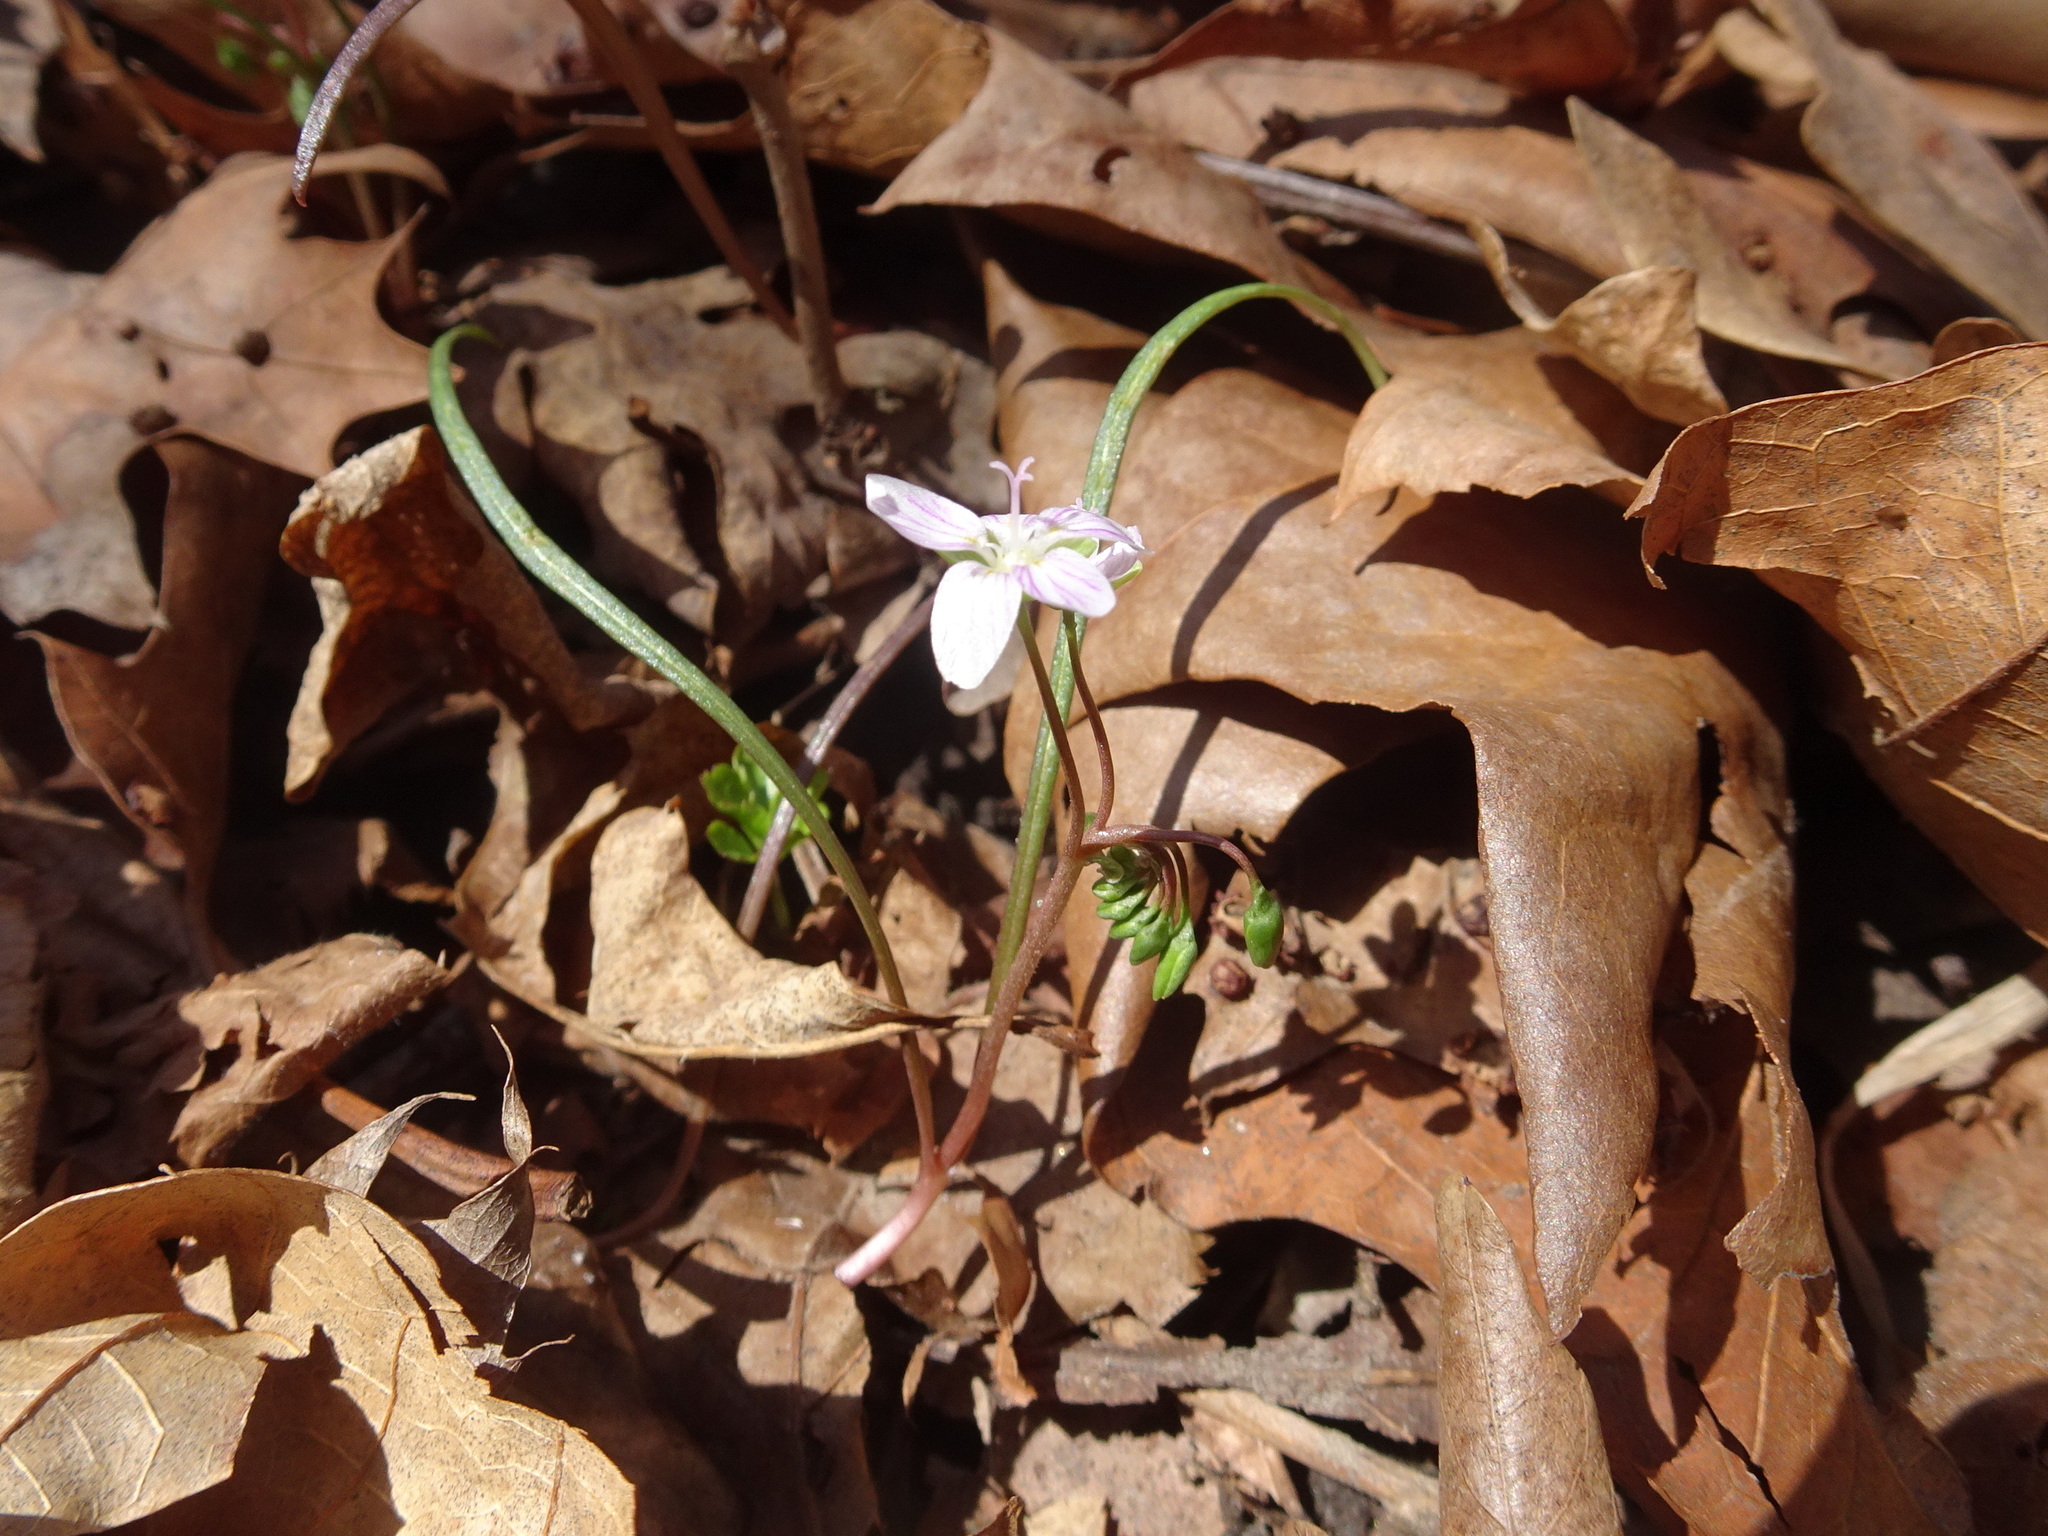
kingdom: Plantae
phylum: Tracheophyta
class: Magnoliopsida
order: Caryophyllales
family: Montiaceae
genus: Claytonia
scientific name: Claytonia virginica
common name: Virginia springbeauty
